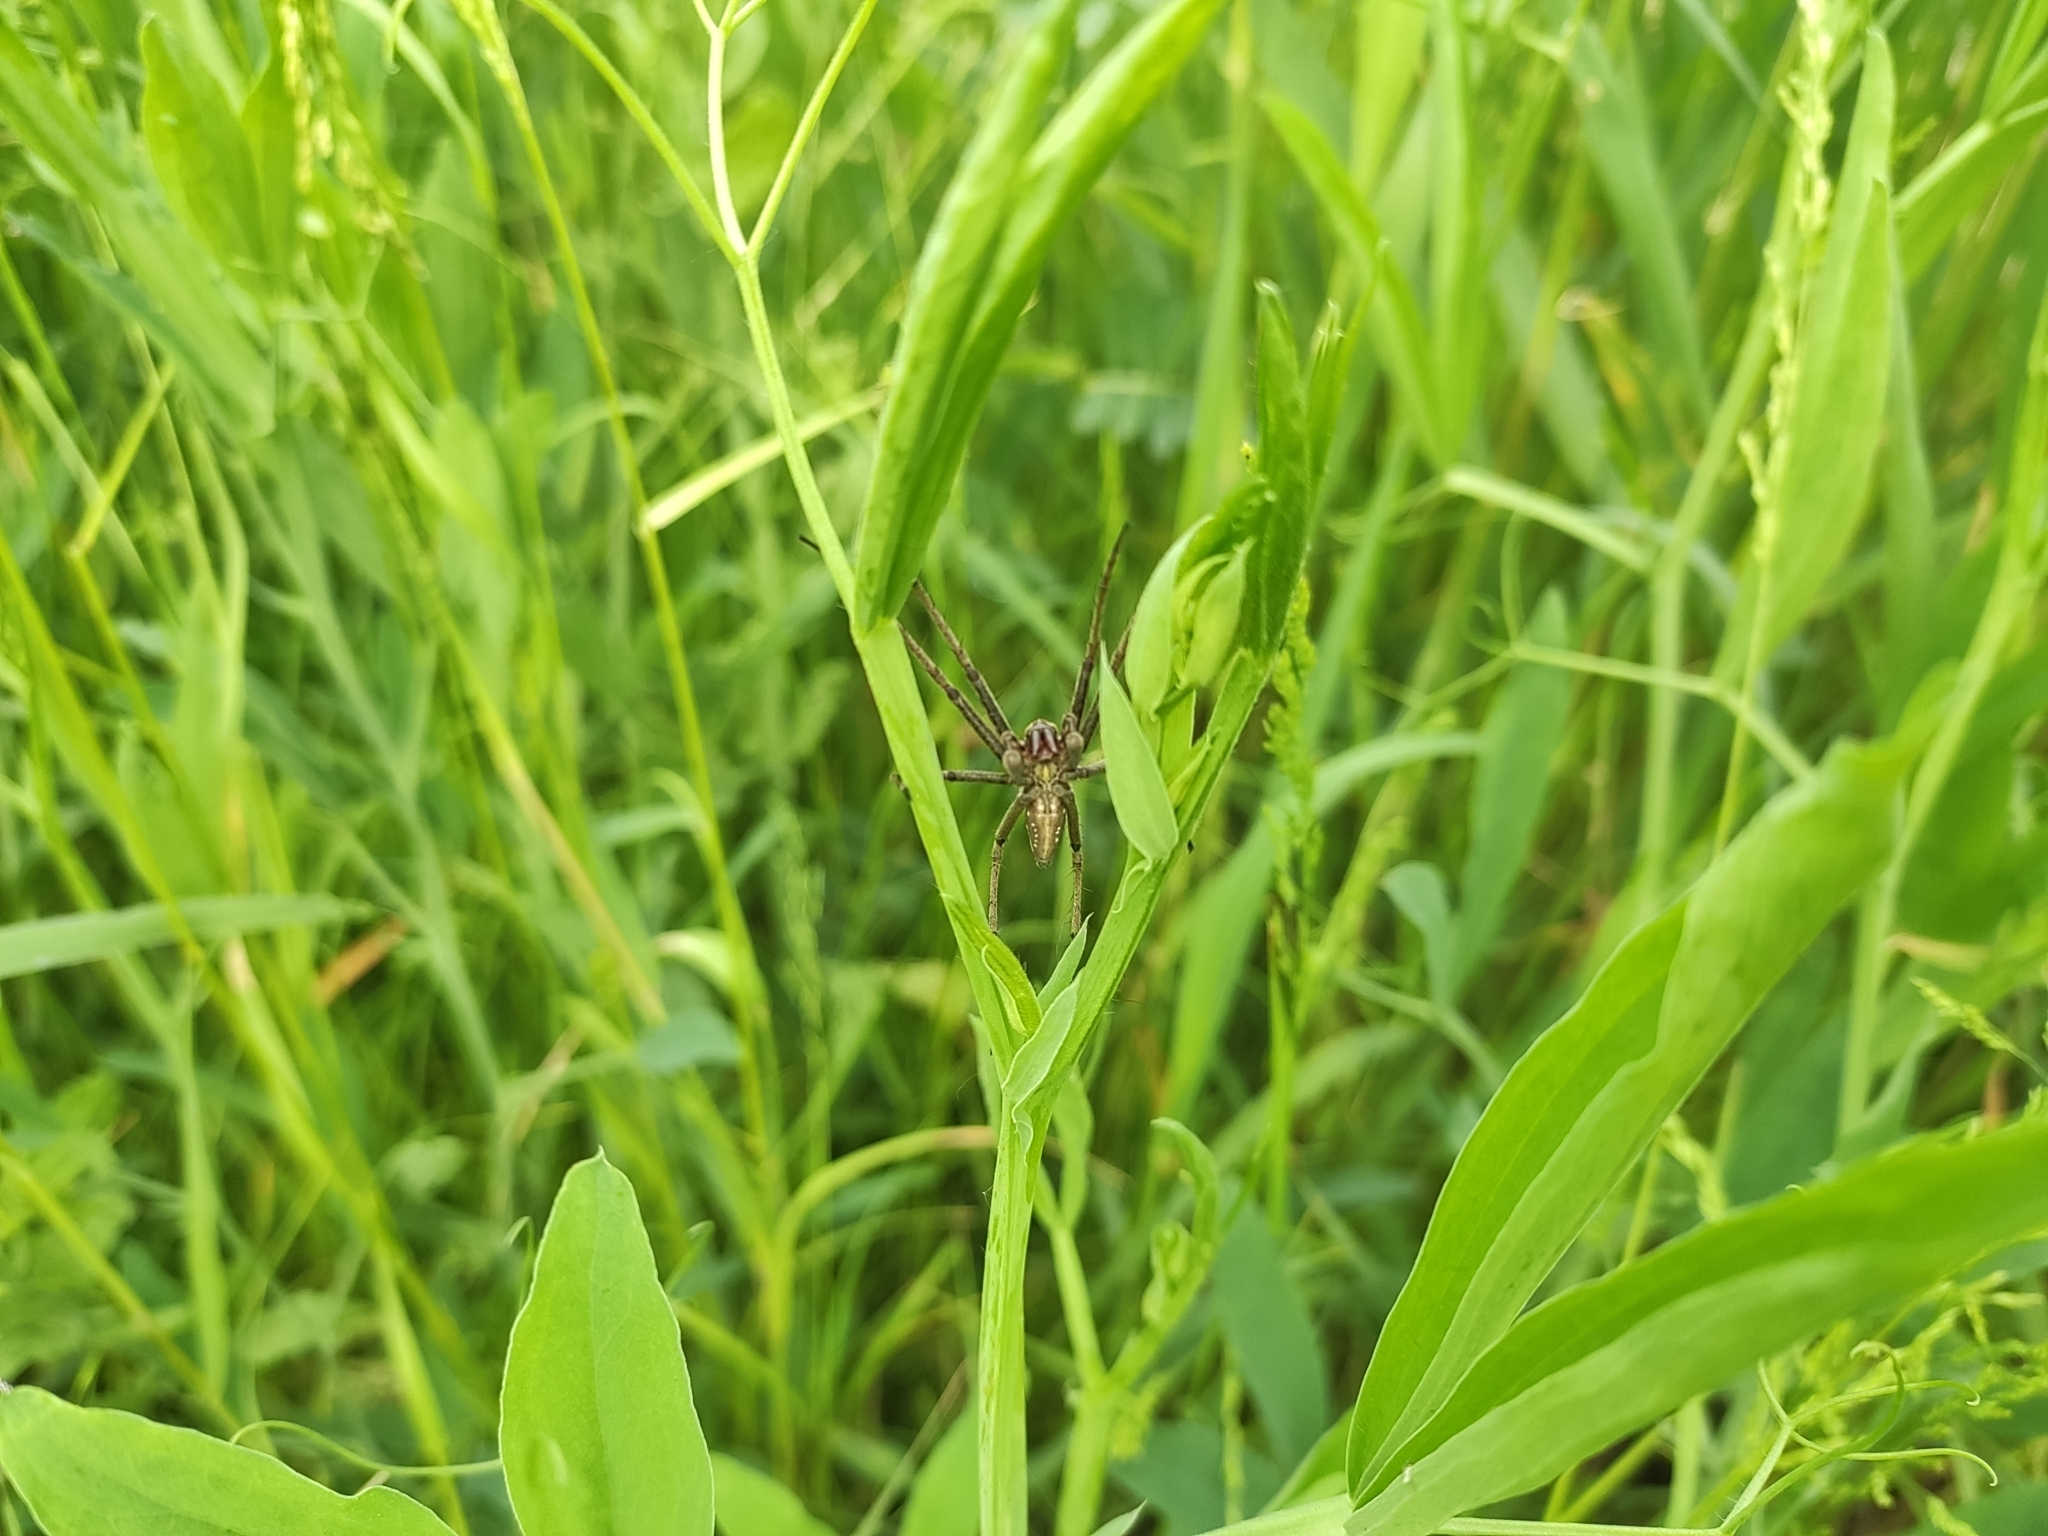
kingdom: Animalia
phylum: Arthropoda
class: Arachnida
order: Araneae
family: Pisauridae
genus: Pisaura
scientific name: Pisaura
